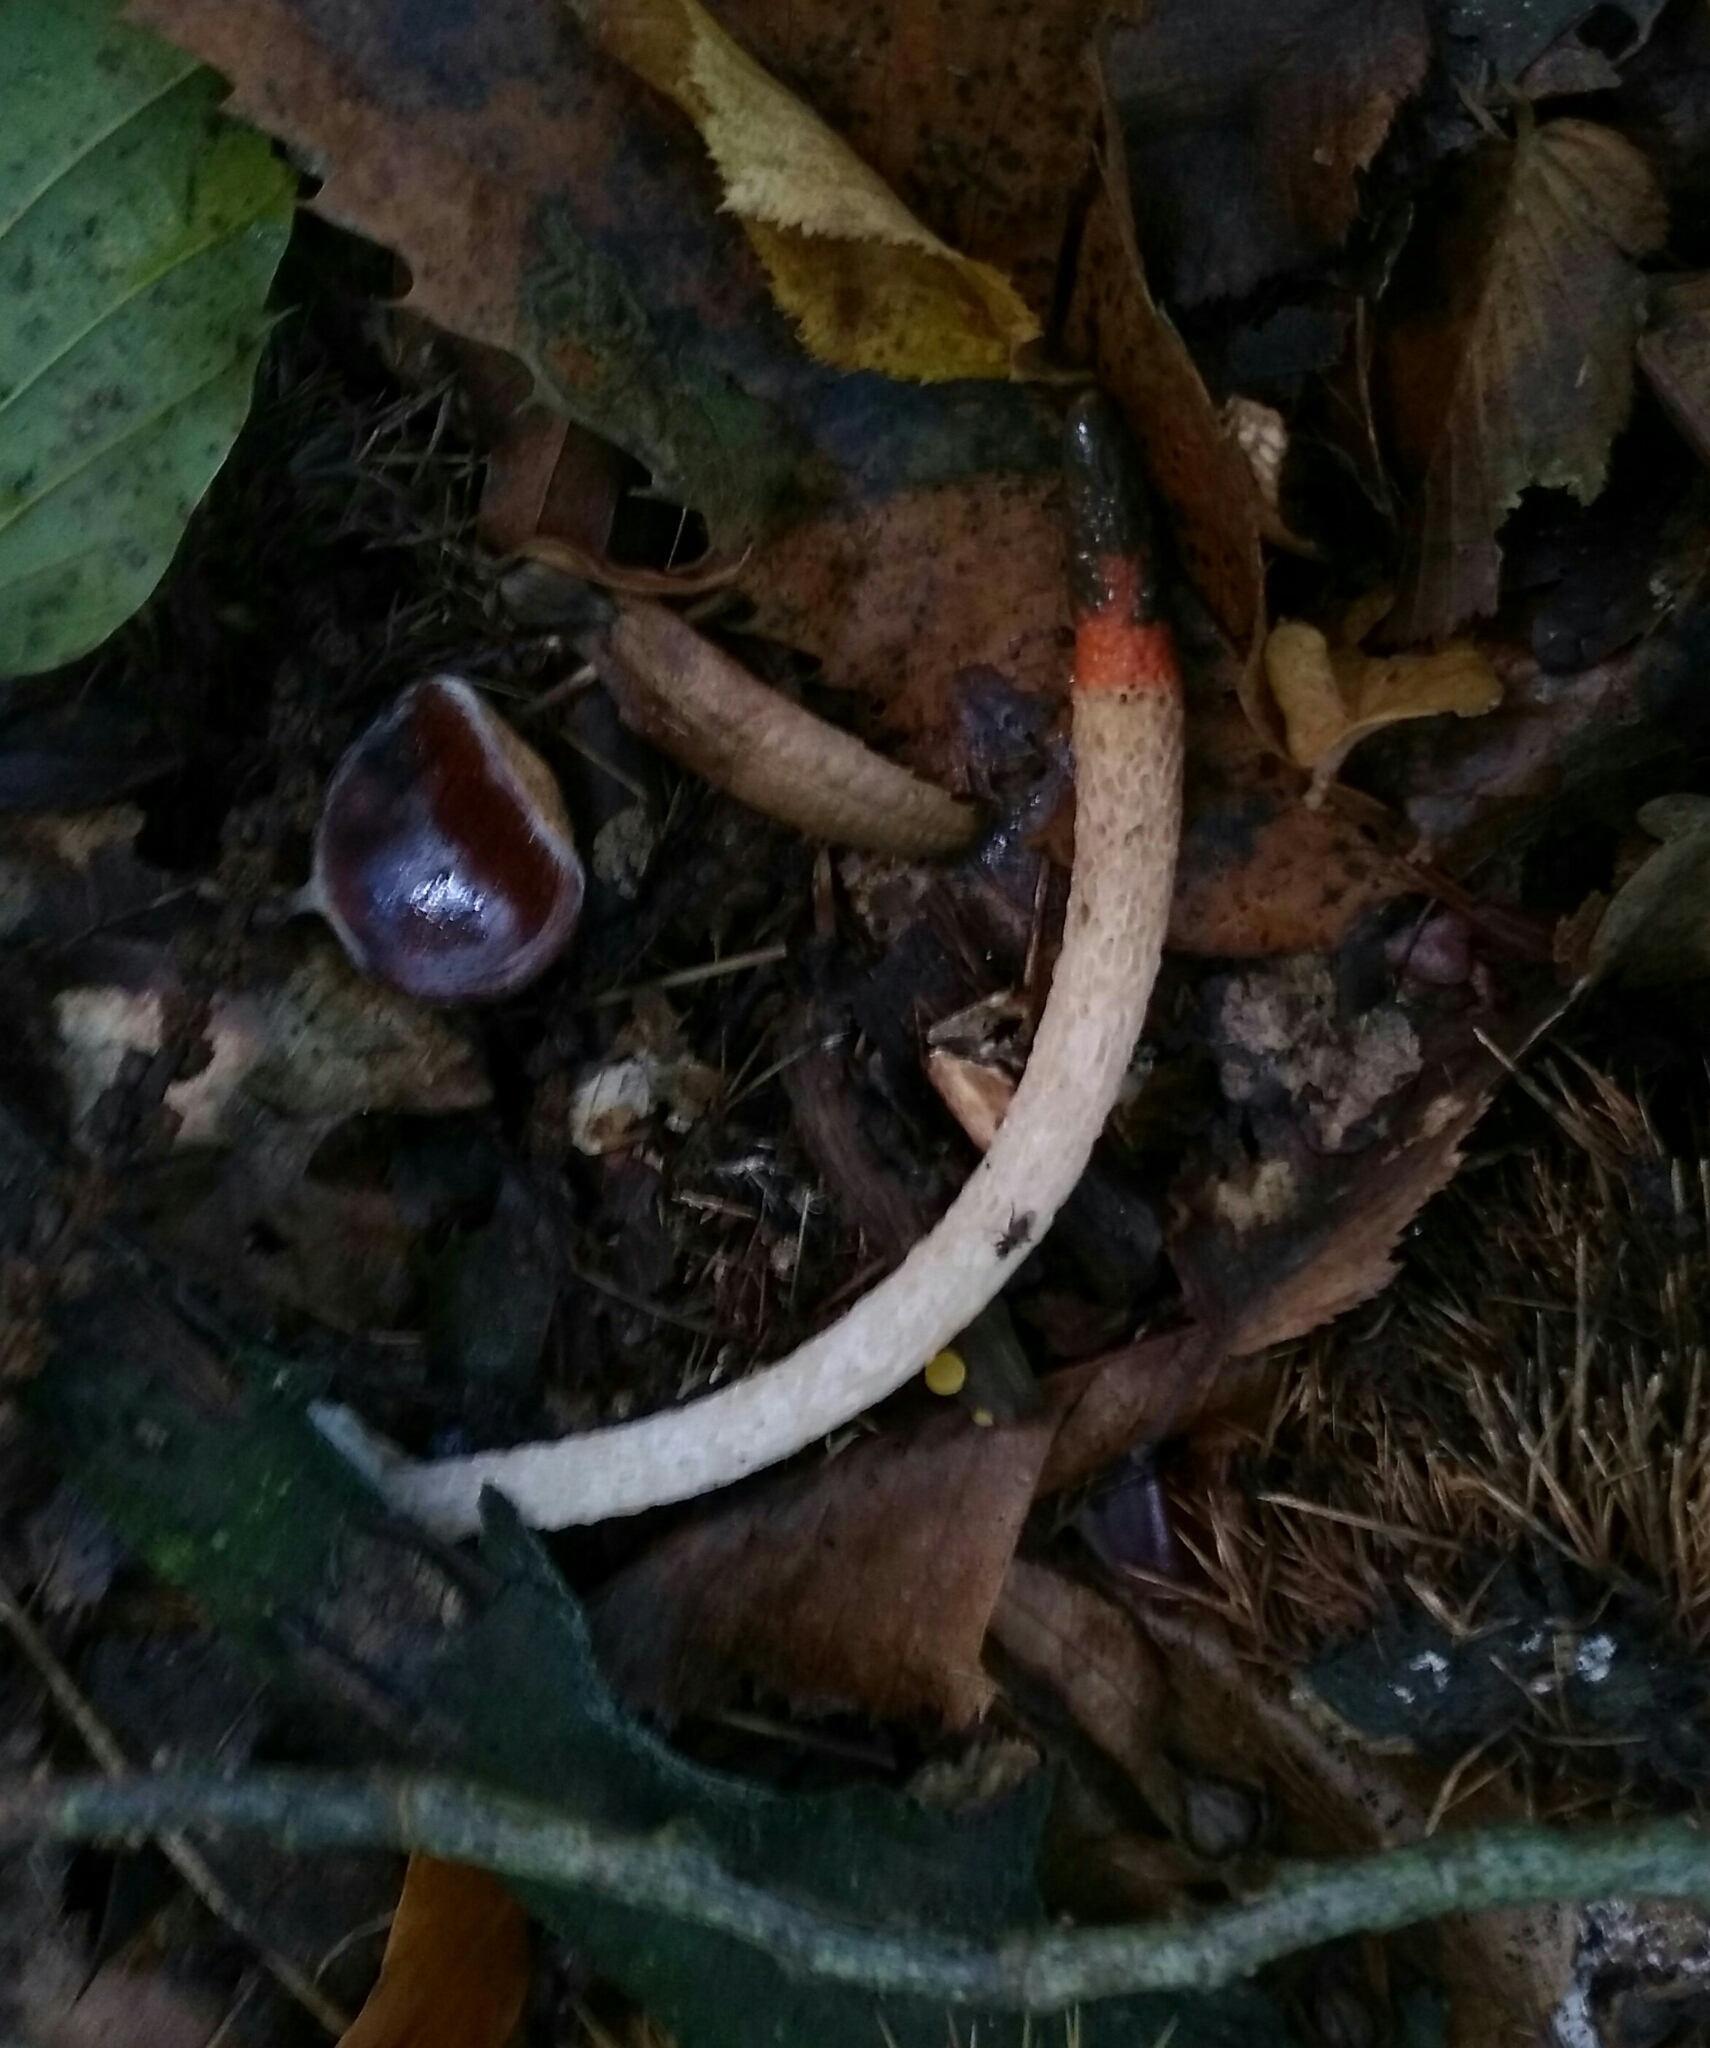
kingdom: Fungi
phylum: Basidiomycota
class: Agaricomycetes
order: Phallales
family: Phallaceae
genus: Mutinus
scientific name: Mutinus caninus
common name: Dog stinkhorn
